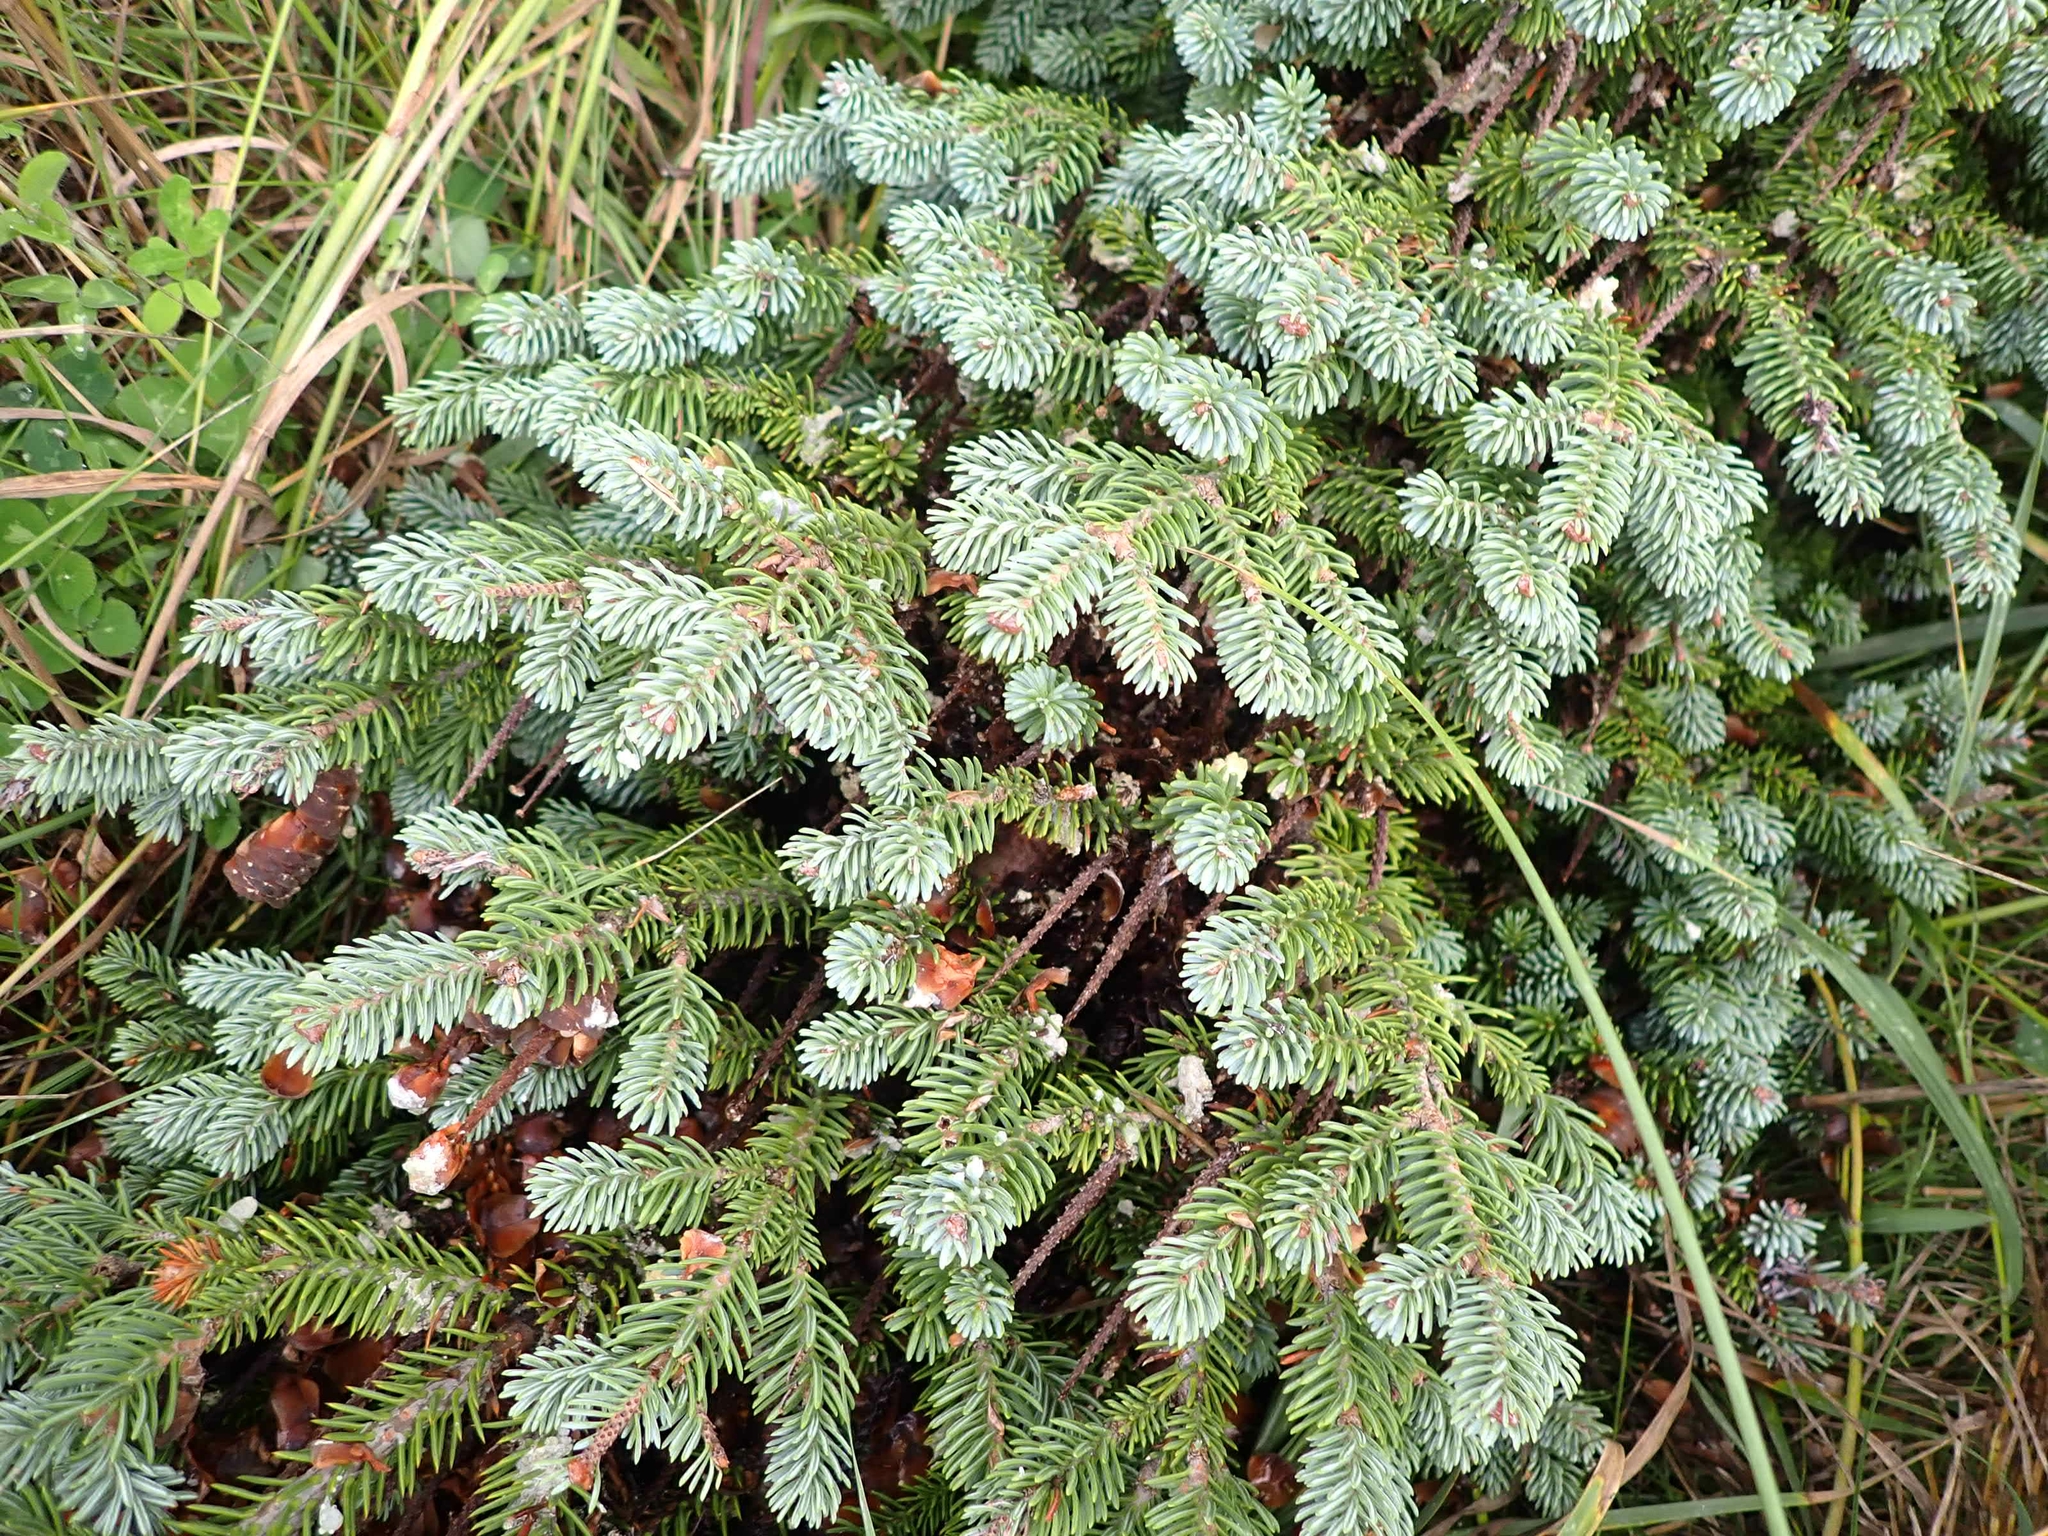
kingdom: Plantae
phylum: Tracheophyta
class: Pinopsida
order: Pinales
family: Pinaceae
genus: Picea
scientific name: Picea glauca
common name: White spruce
